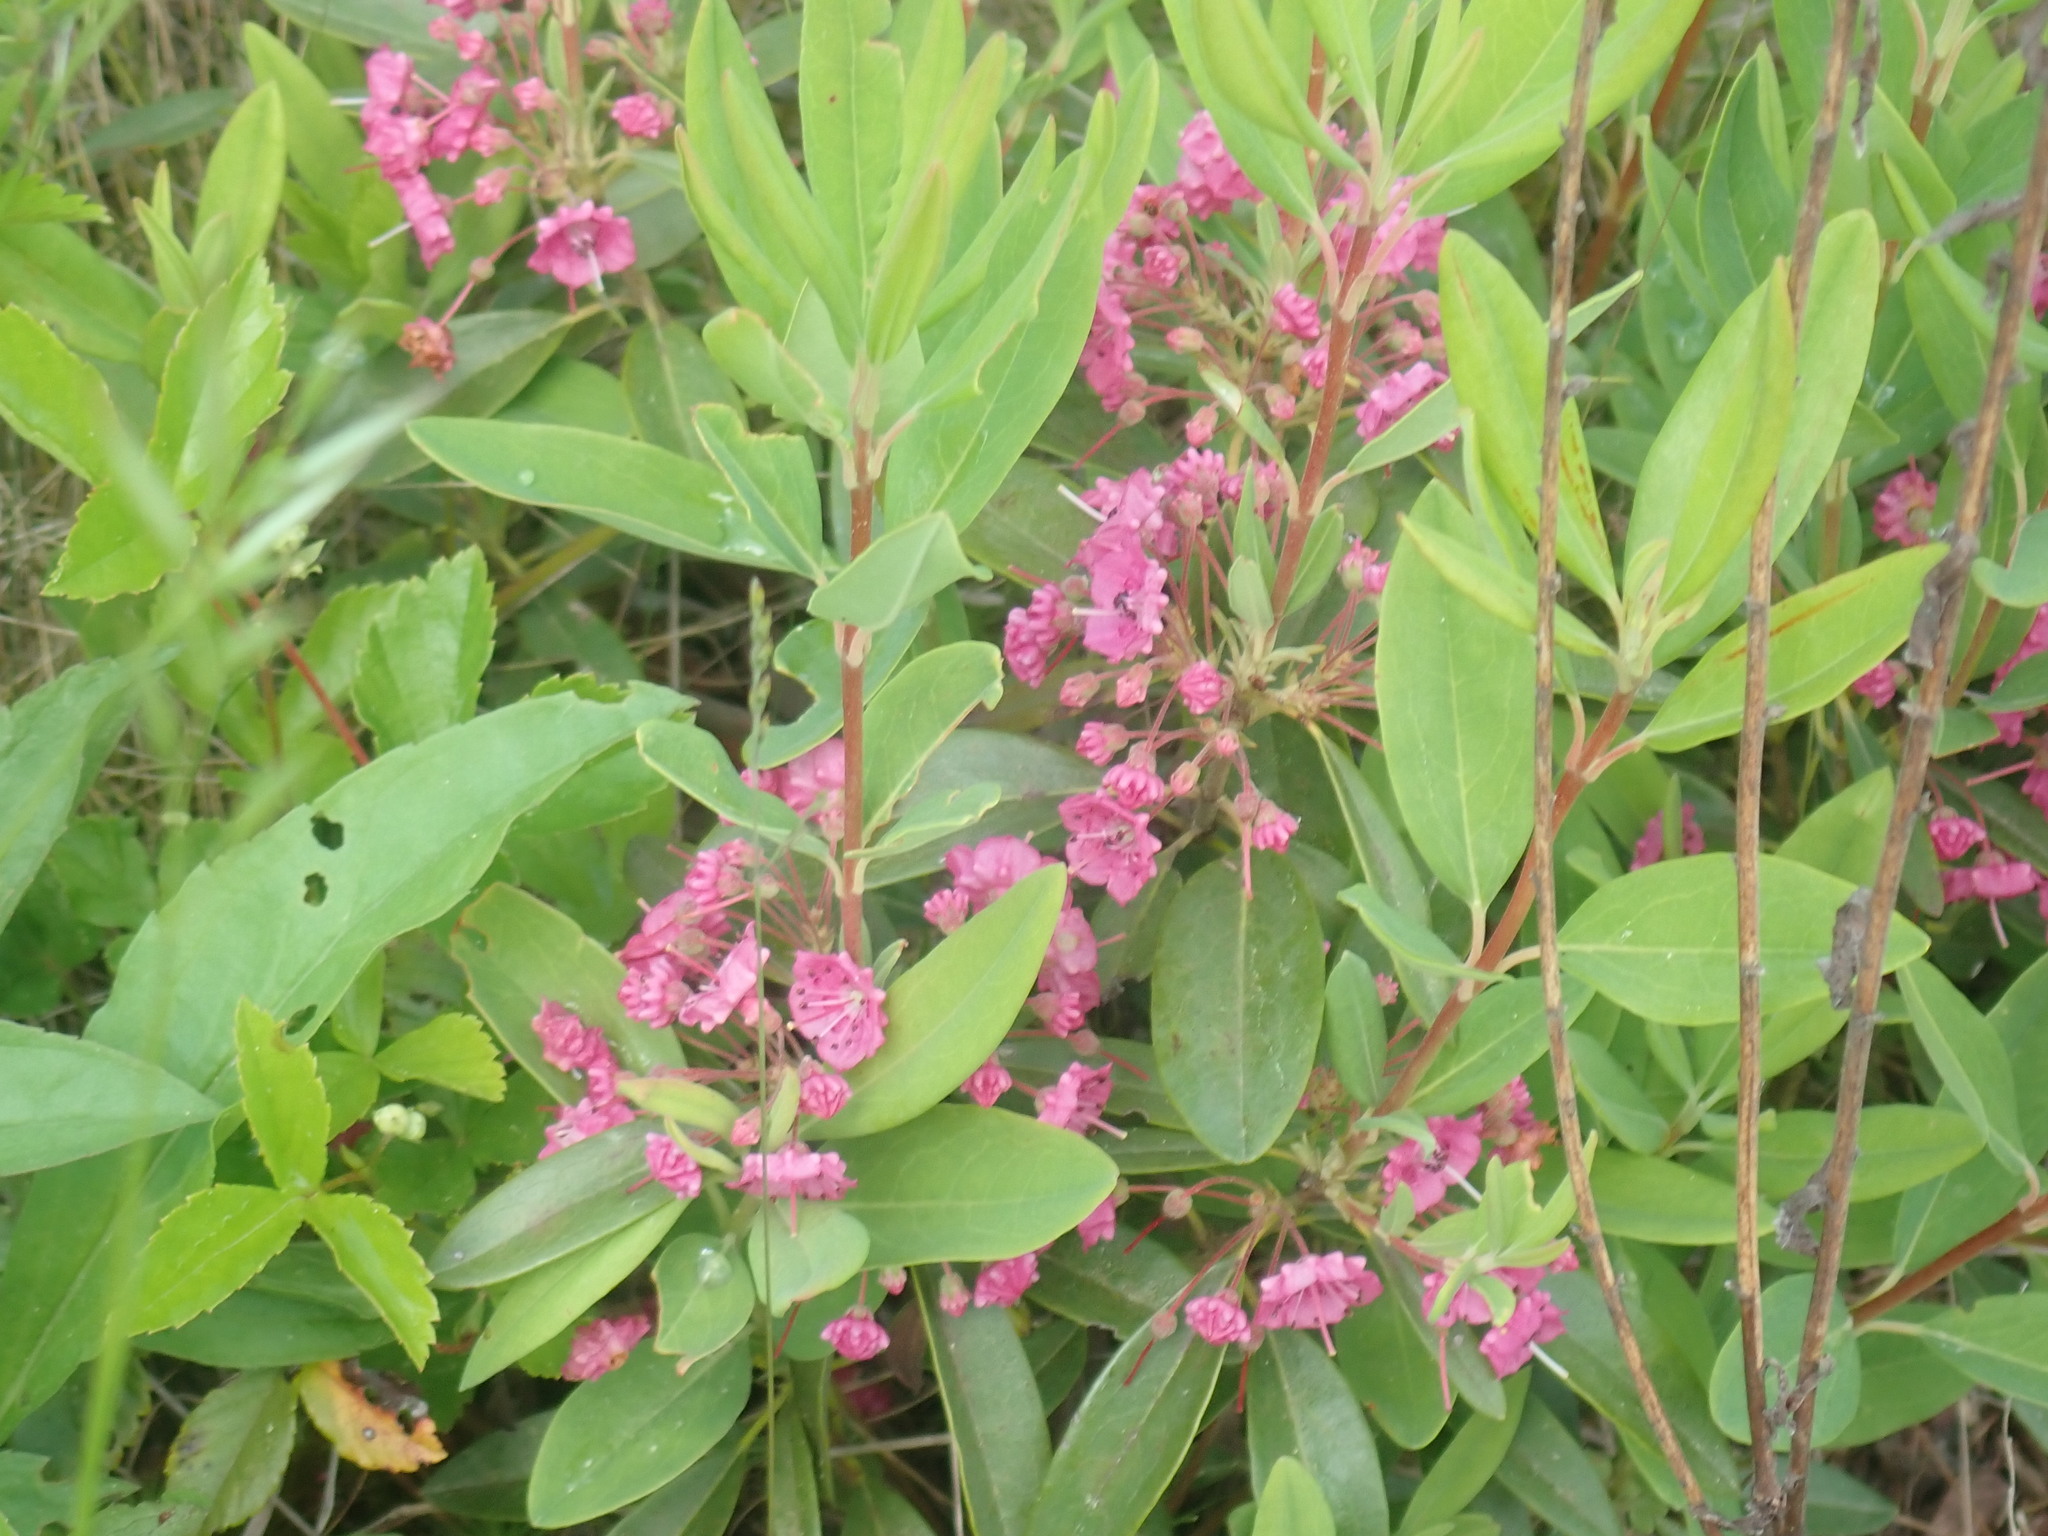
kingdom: Plantae
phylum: Tracheophyta
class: Magnoliopsida
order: Ericales
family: Ericaceae
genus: Kalmia
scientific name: Kalmia angustifolia
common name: Sheep-laurel
